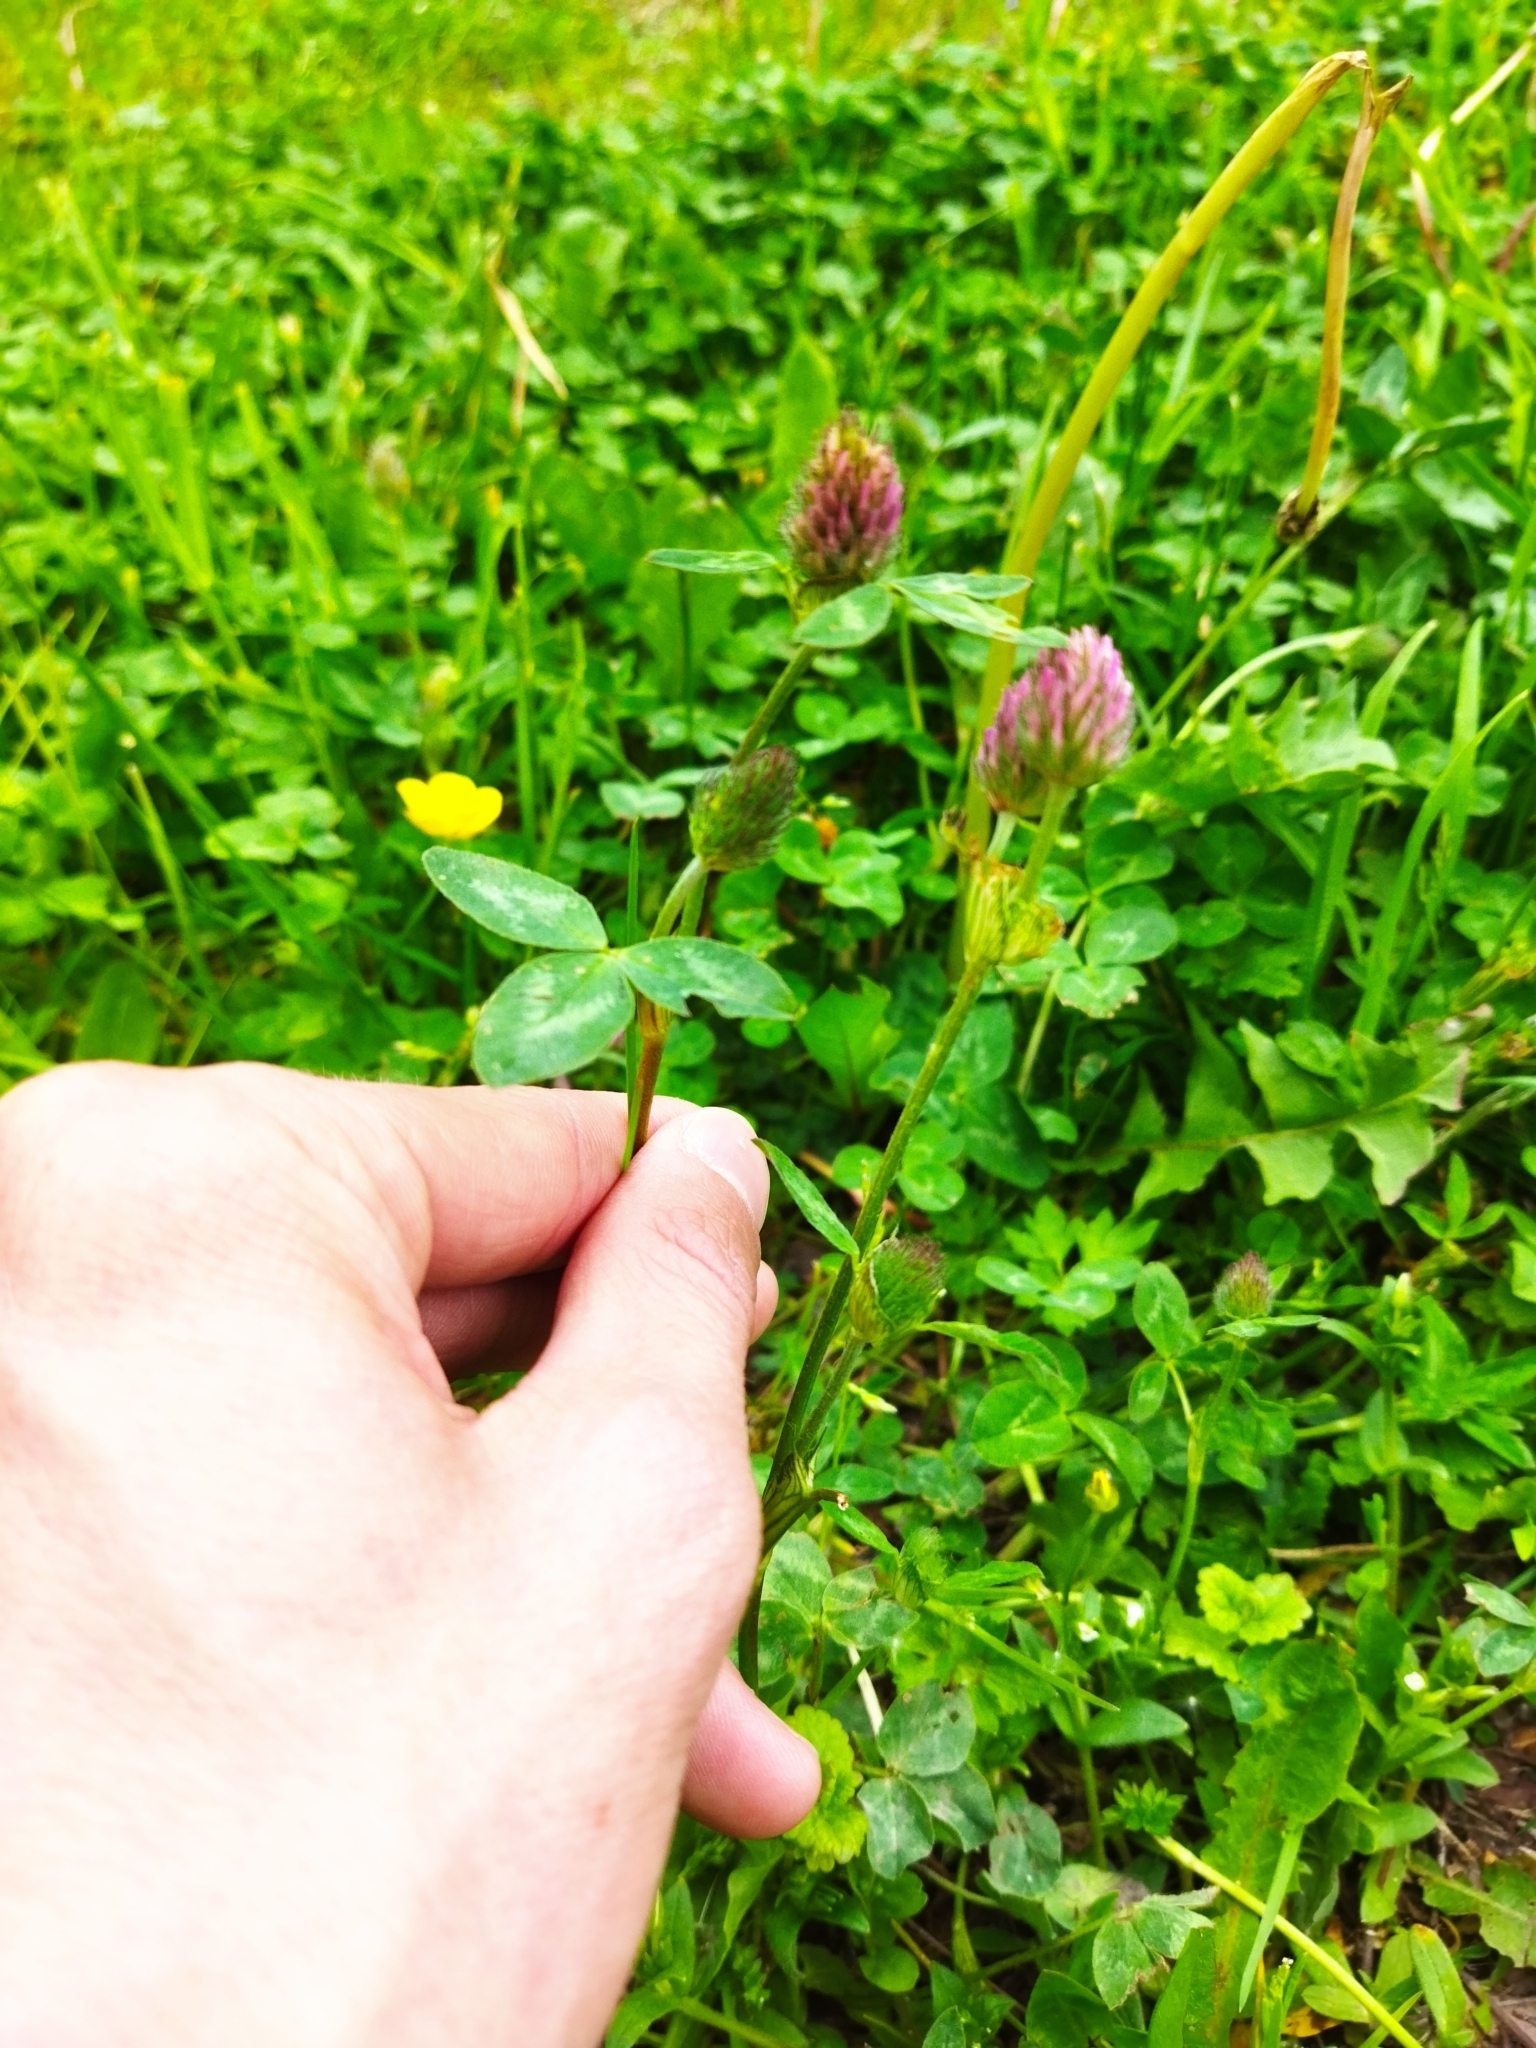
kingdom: Plantae
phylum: Tracheophyta
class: Magnoliopsida
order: Fabales
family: Fabaceae
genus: Trifolium
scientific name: Trifolium pratense
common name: Red clover
